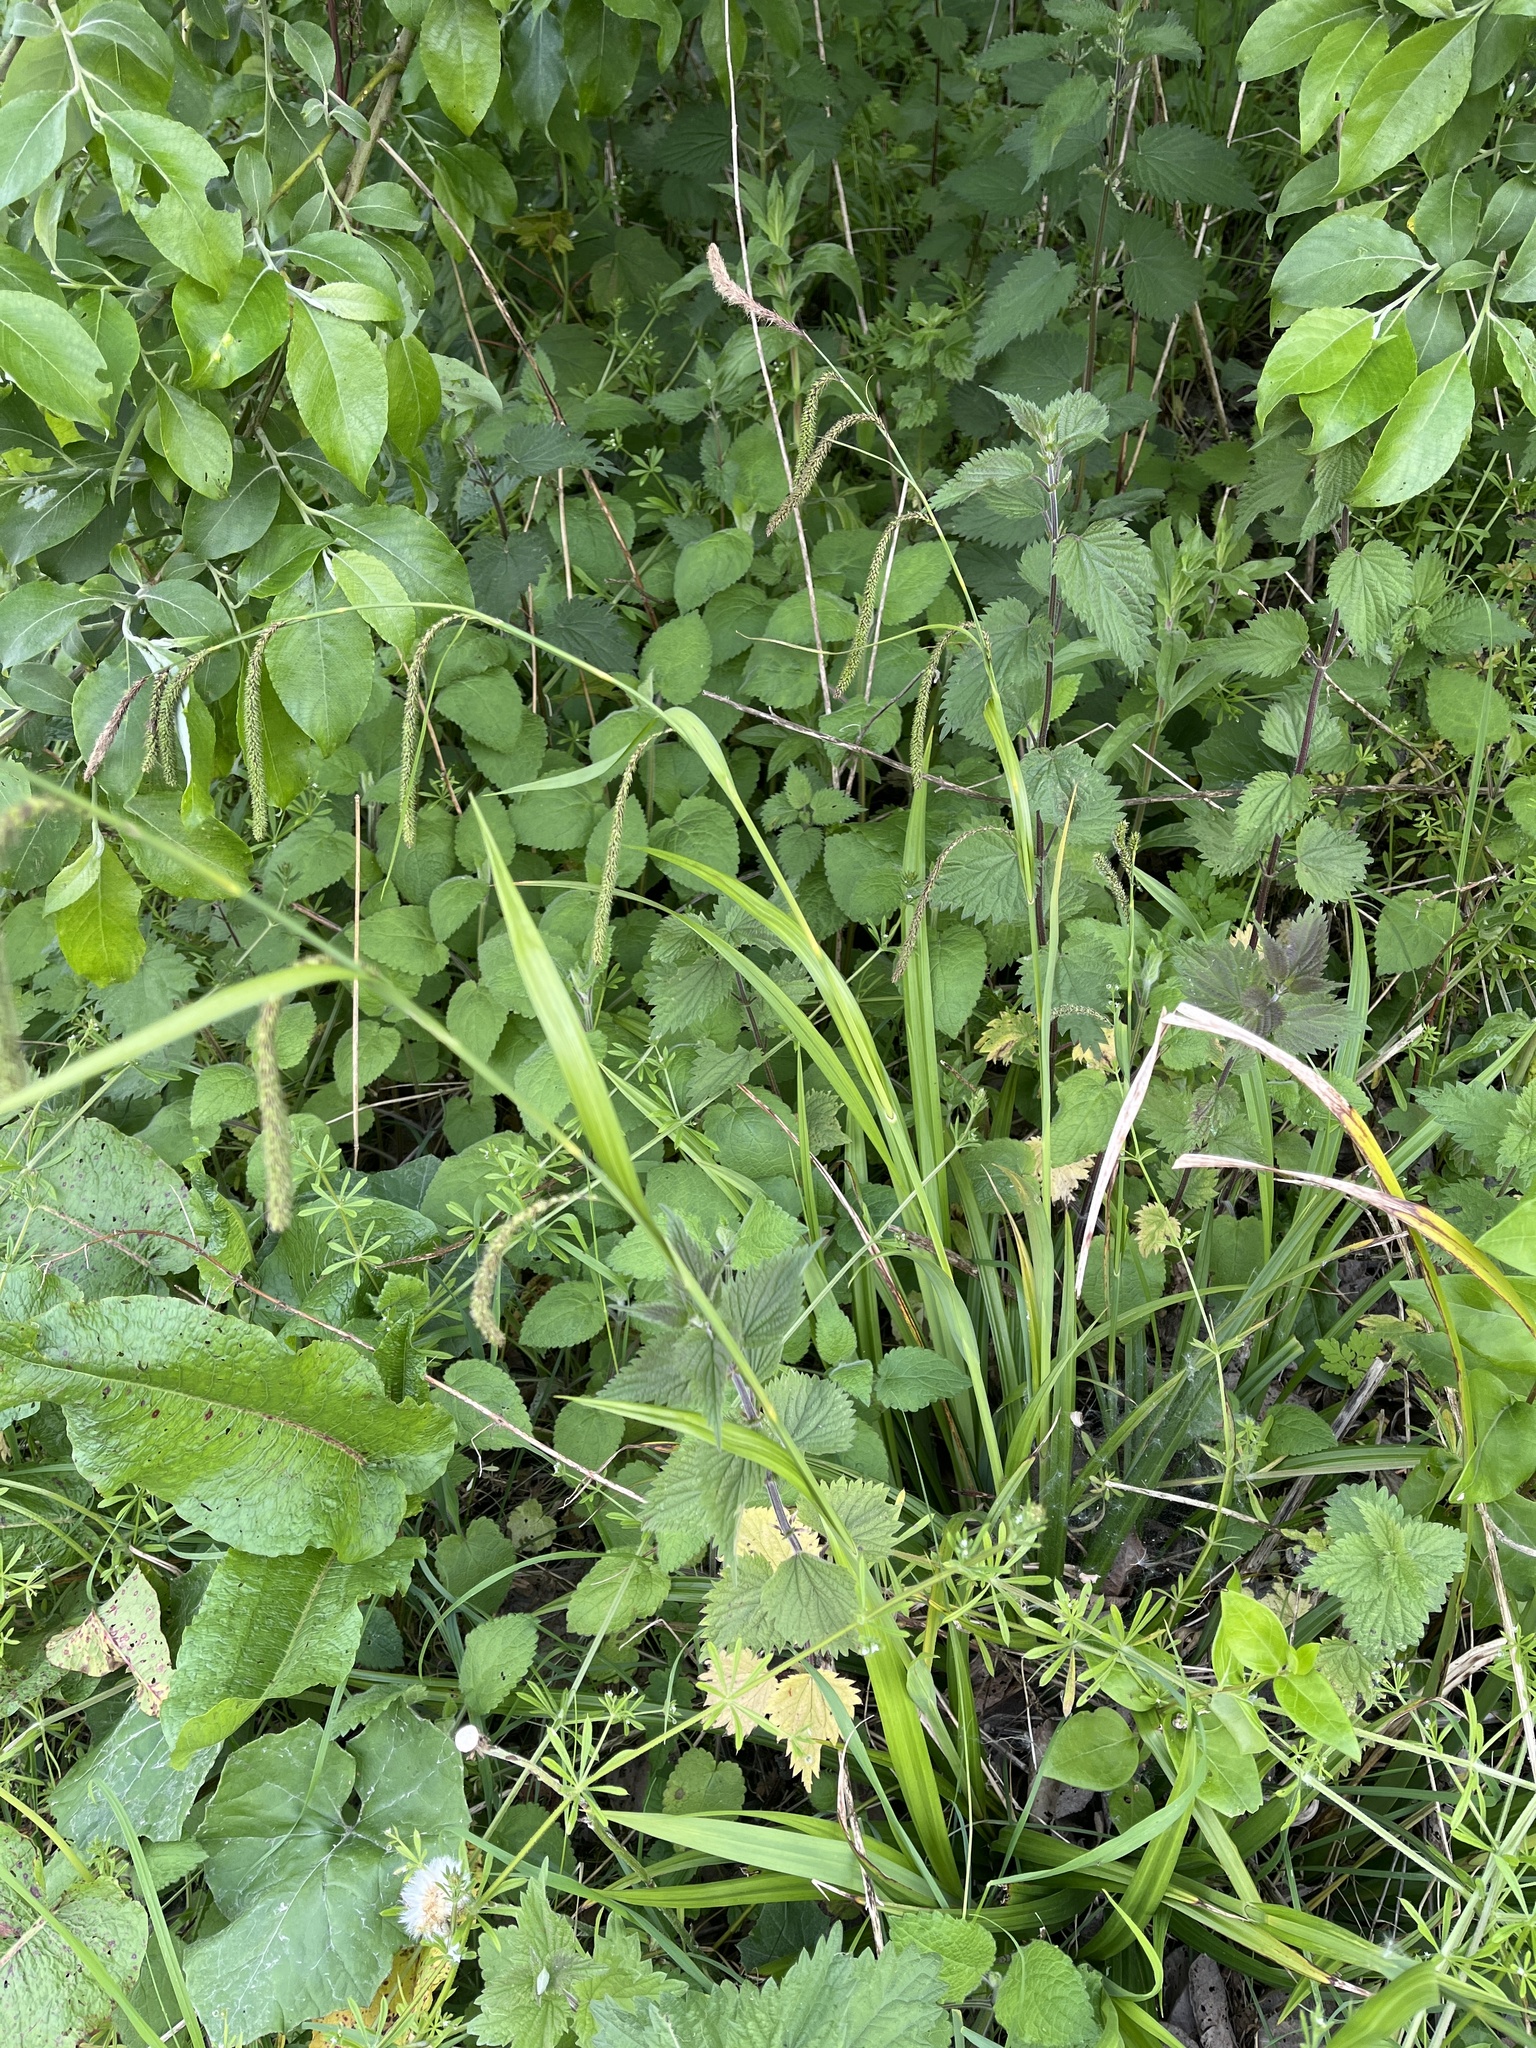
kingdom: Plantae
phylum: Tracheophyta
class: Liliopsida
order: Poales
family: Cyperaceae
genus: Carex
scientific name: Carex pendula
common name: Pendulous sedge
